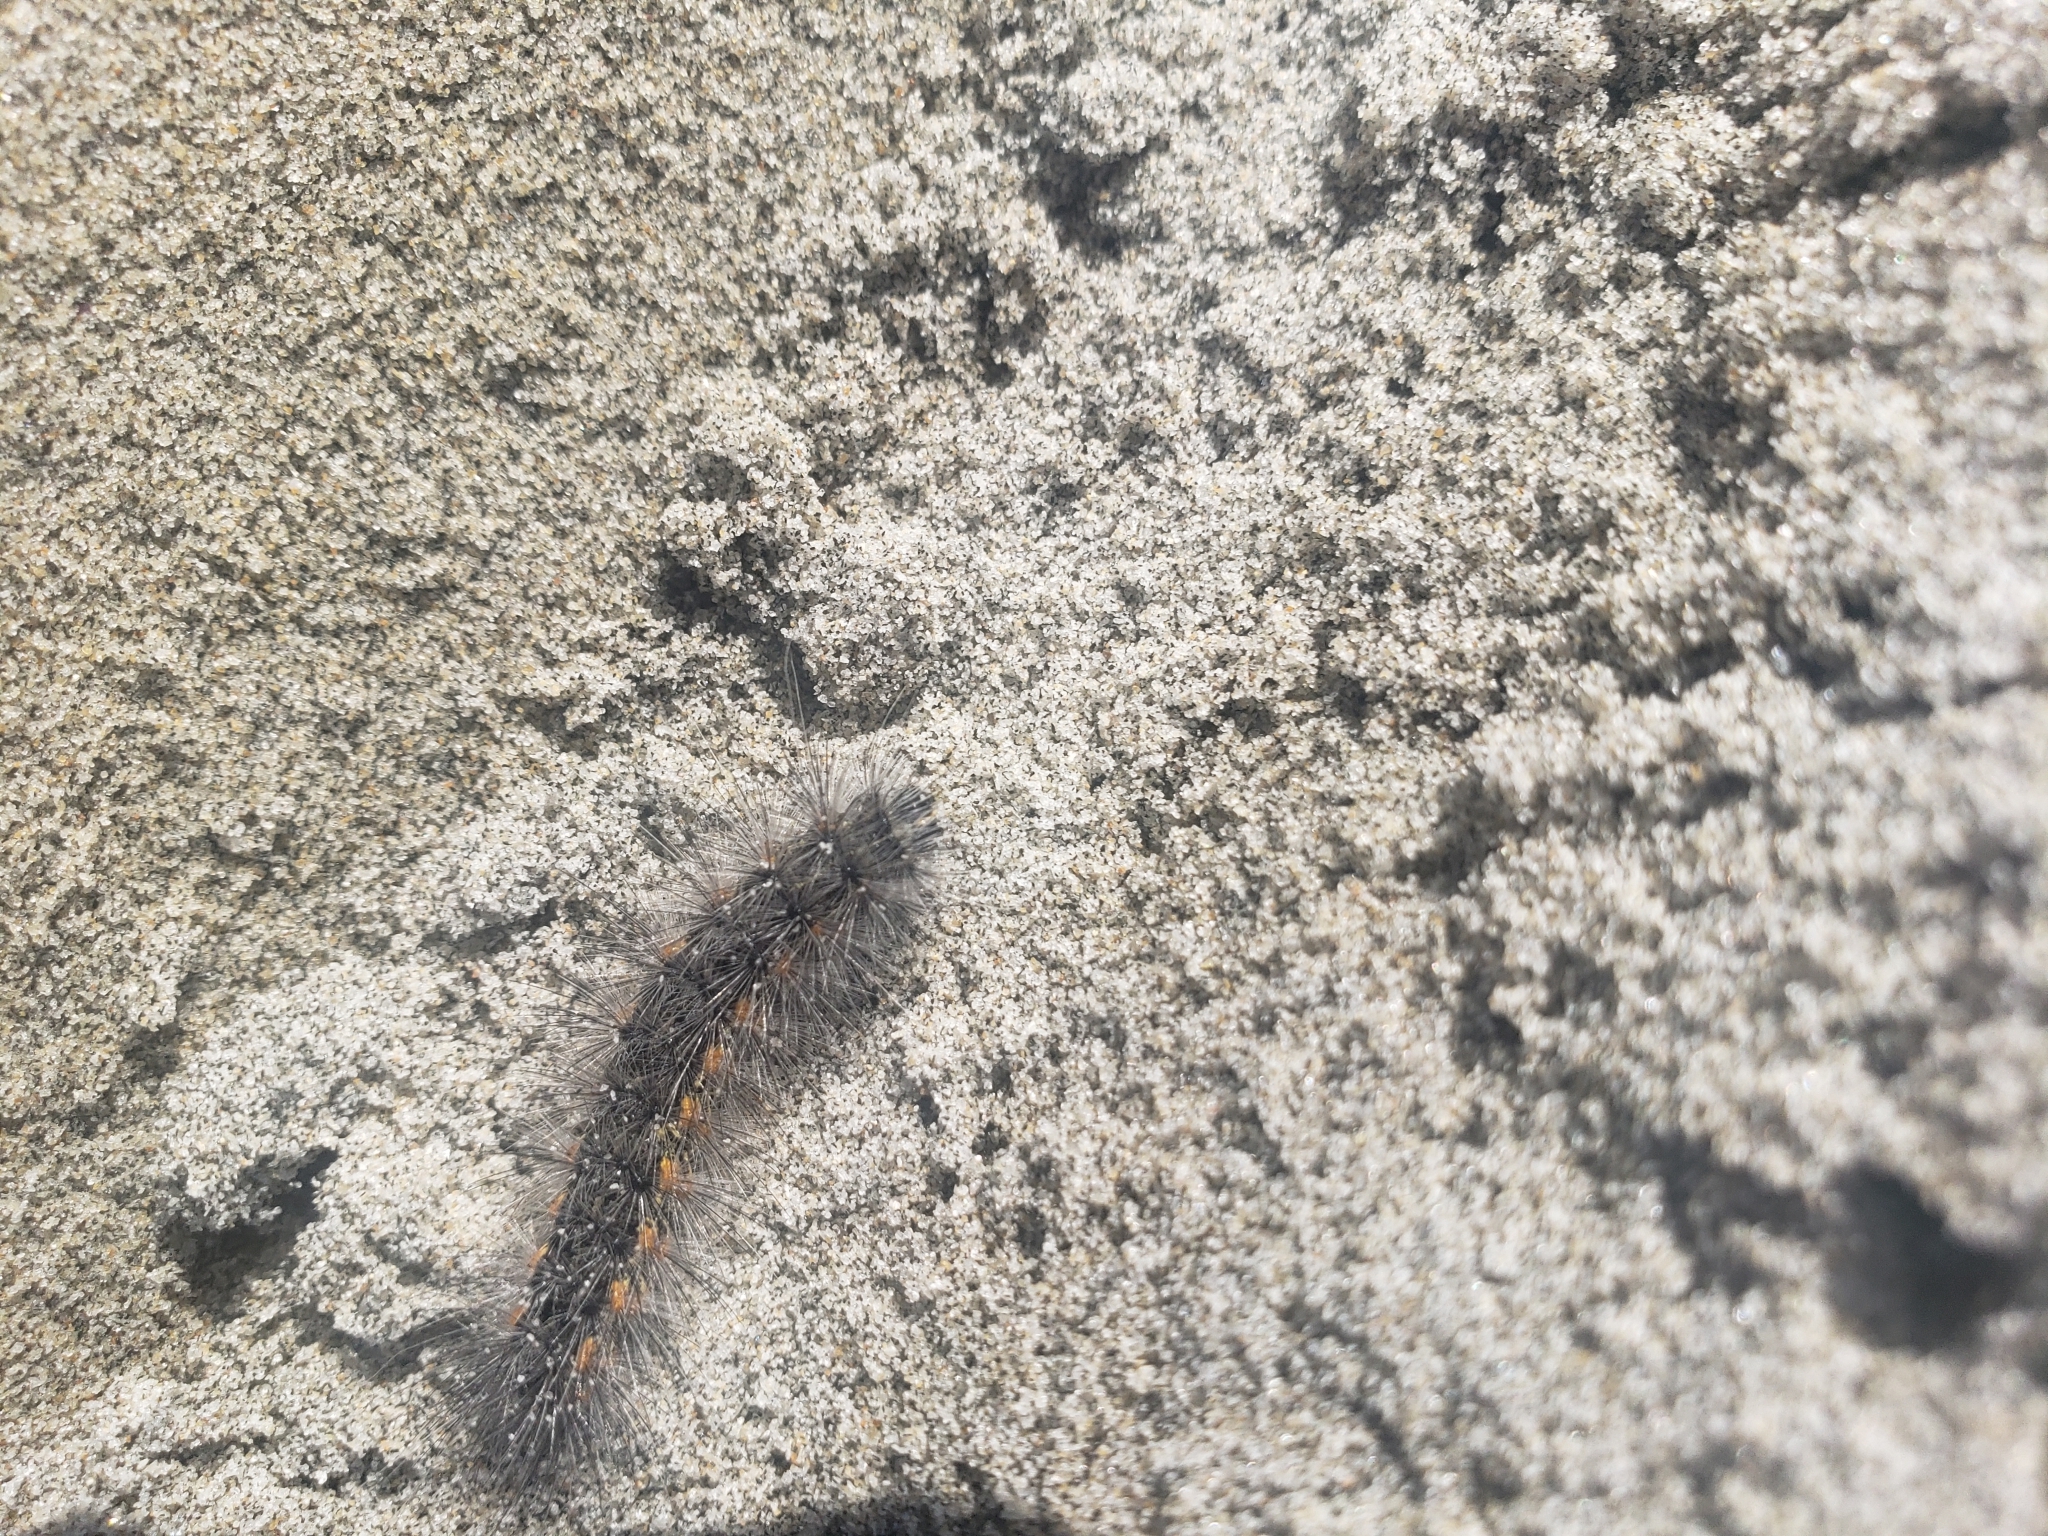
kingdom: Animalia
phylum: Arthropoda
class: Insecta
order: Lepidoptera
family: Erebidae
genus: Estigmene
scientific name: Estigmene acrea
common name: Salt marsh moth
